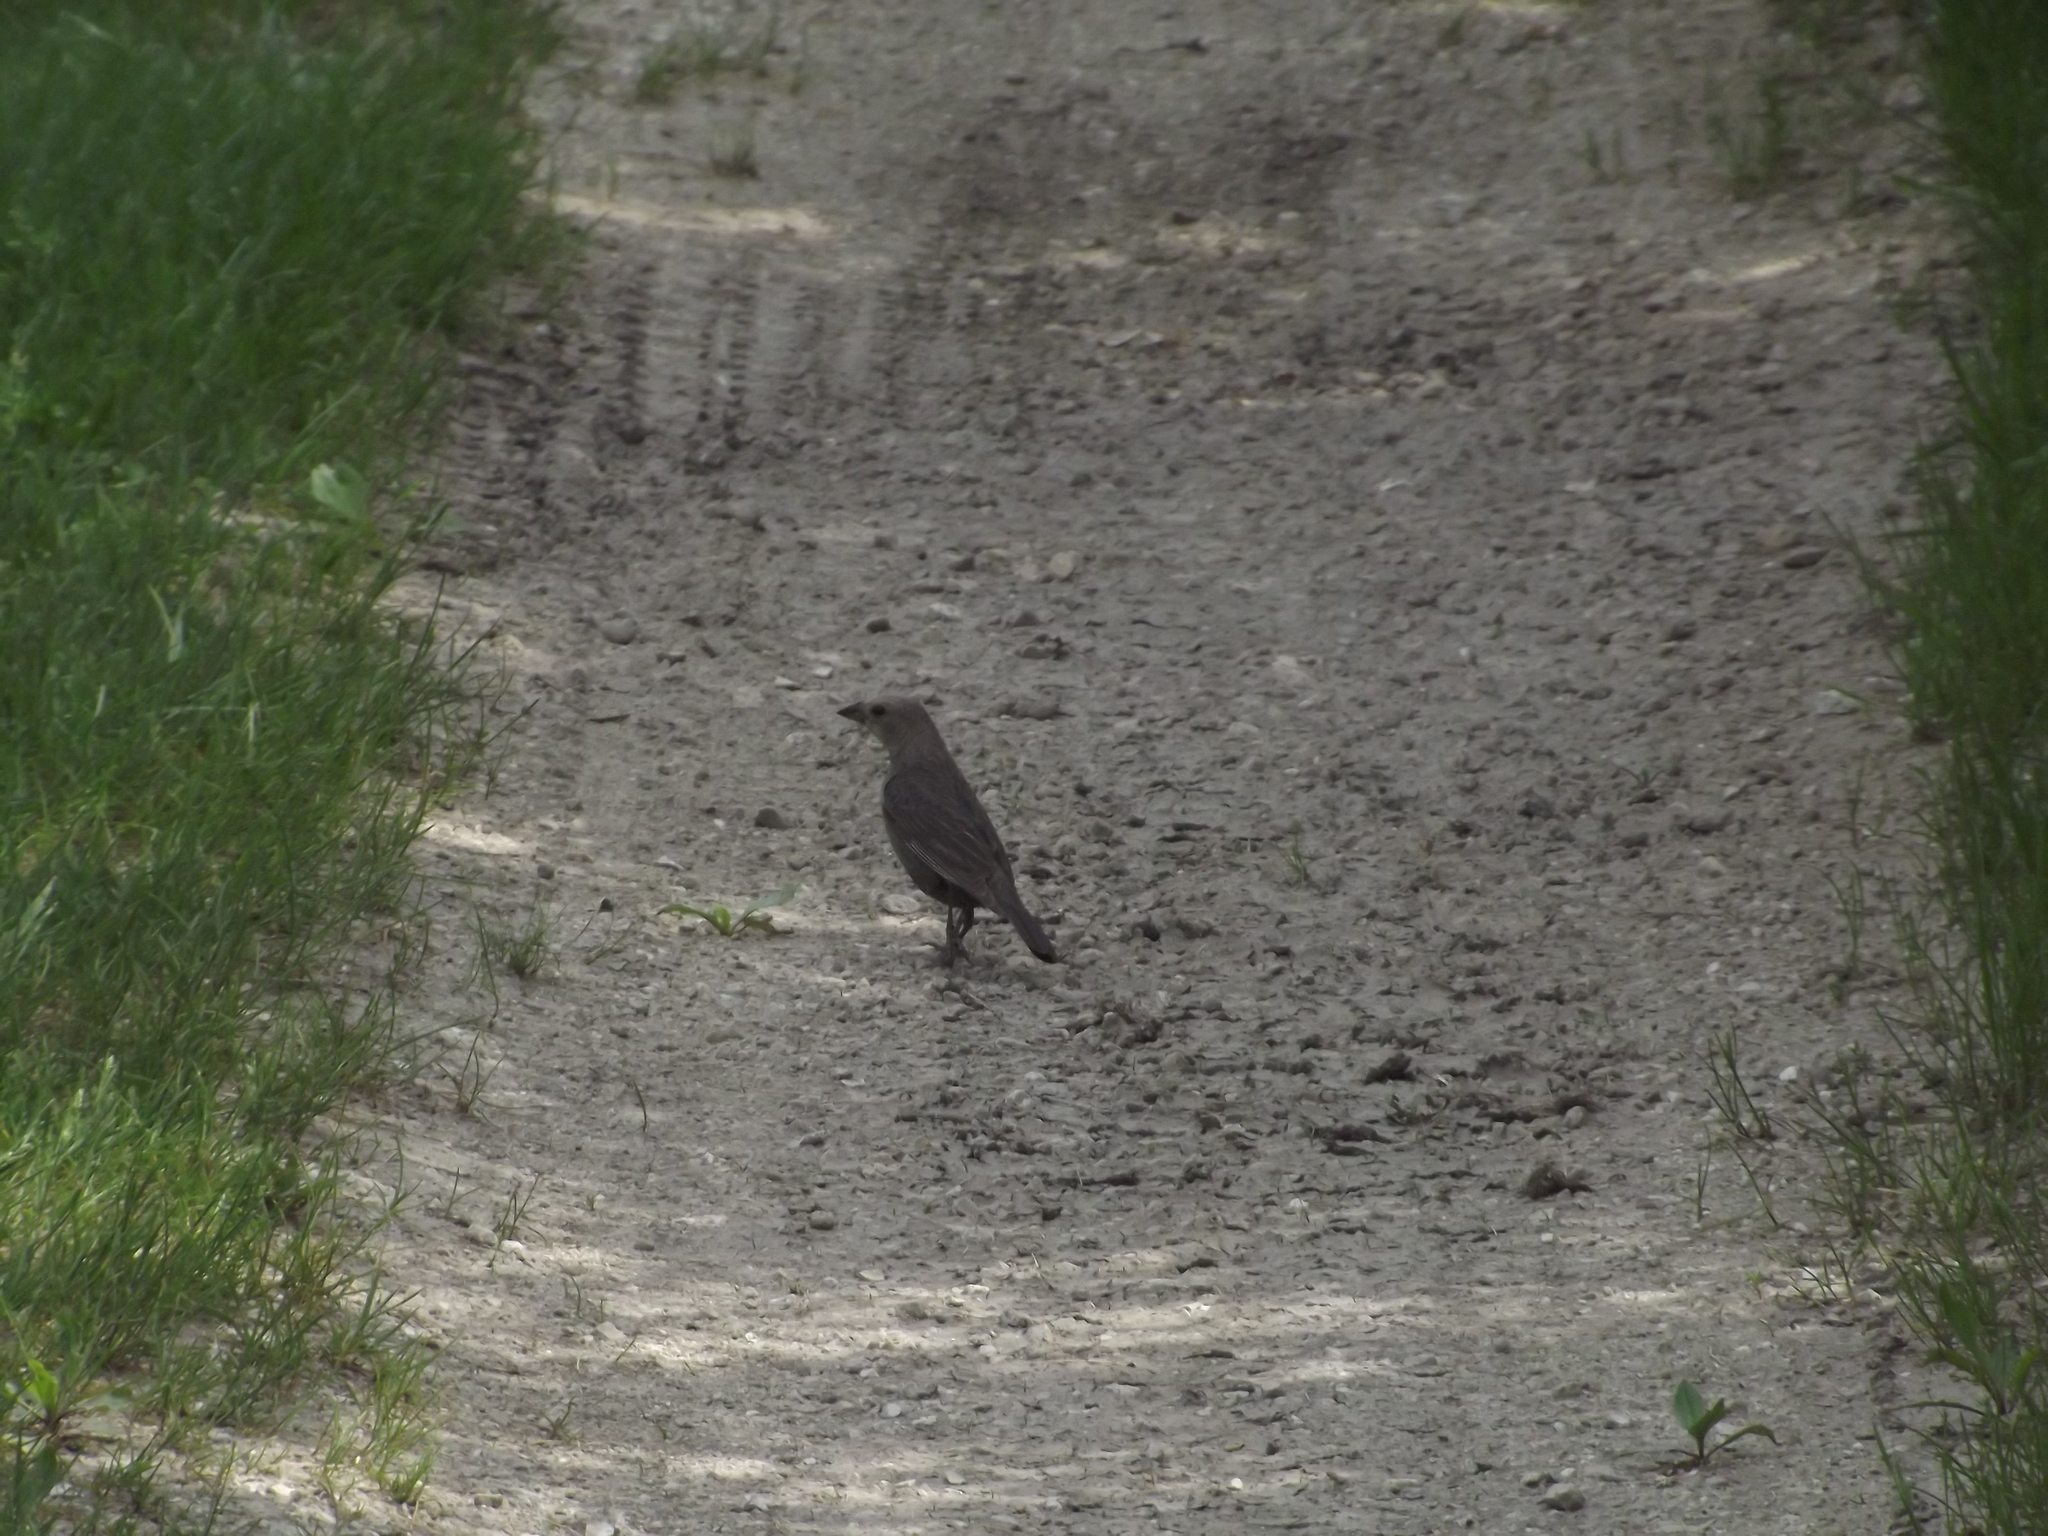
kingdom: Animalia
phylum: Chordata
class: Aves
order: Passeriformes
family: Icteridae
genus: Molothrus
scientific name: Molothrus ater
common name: Brown-headed cowbird
